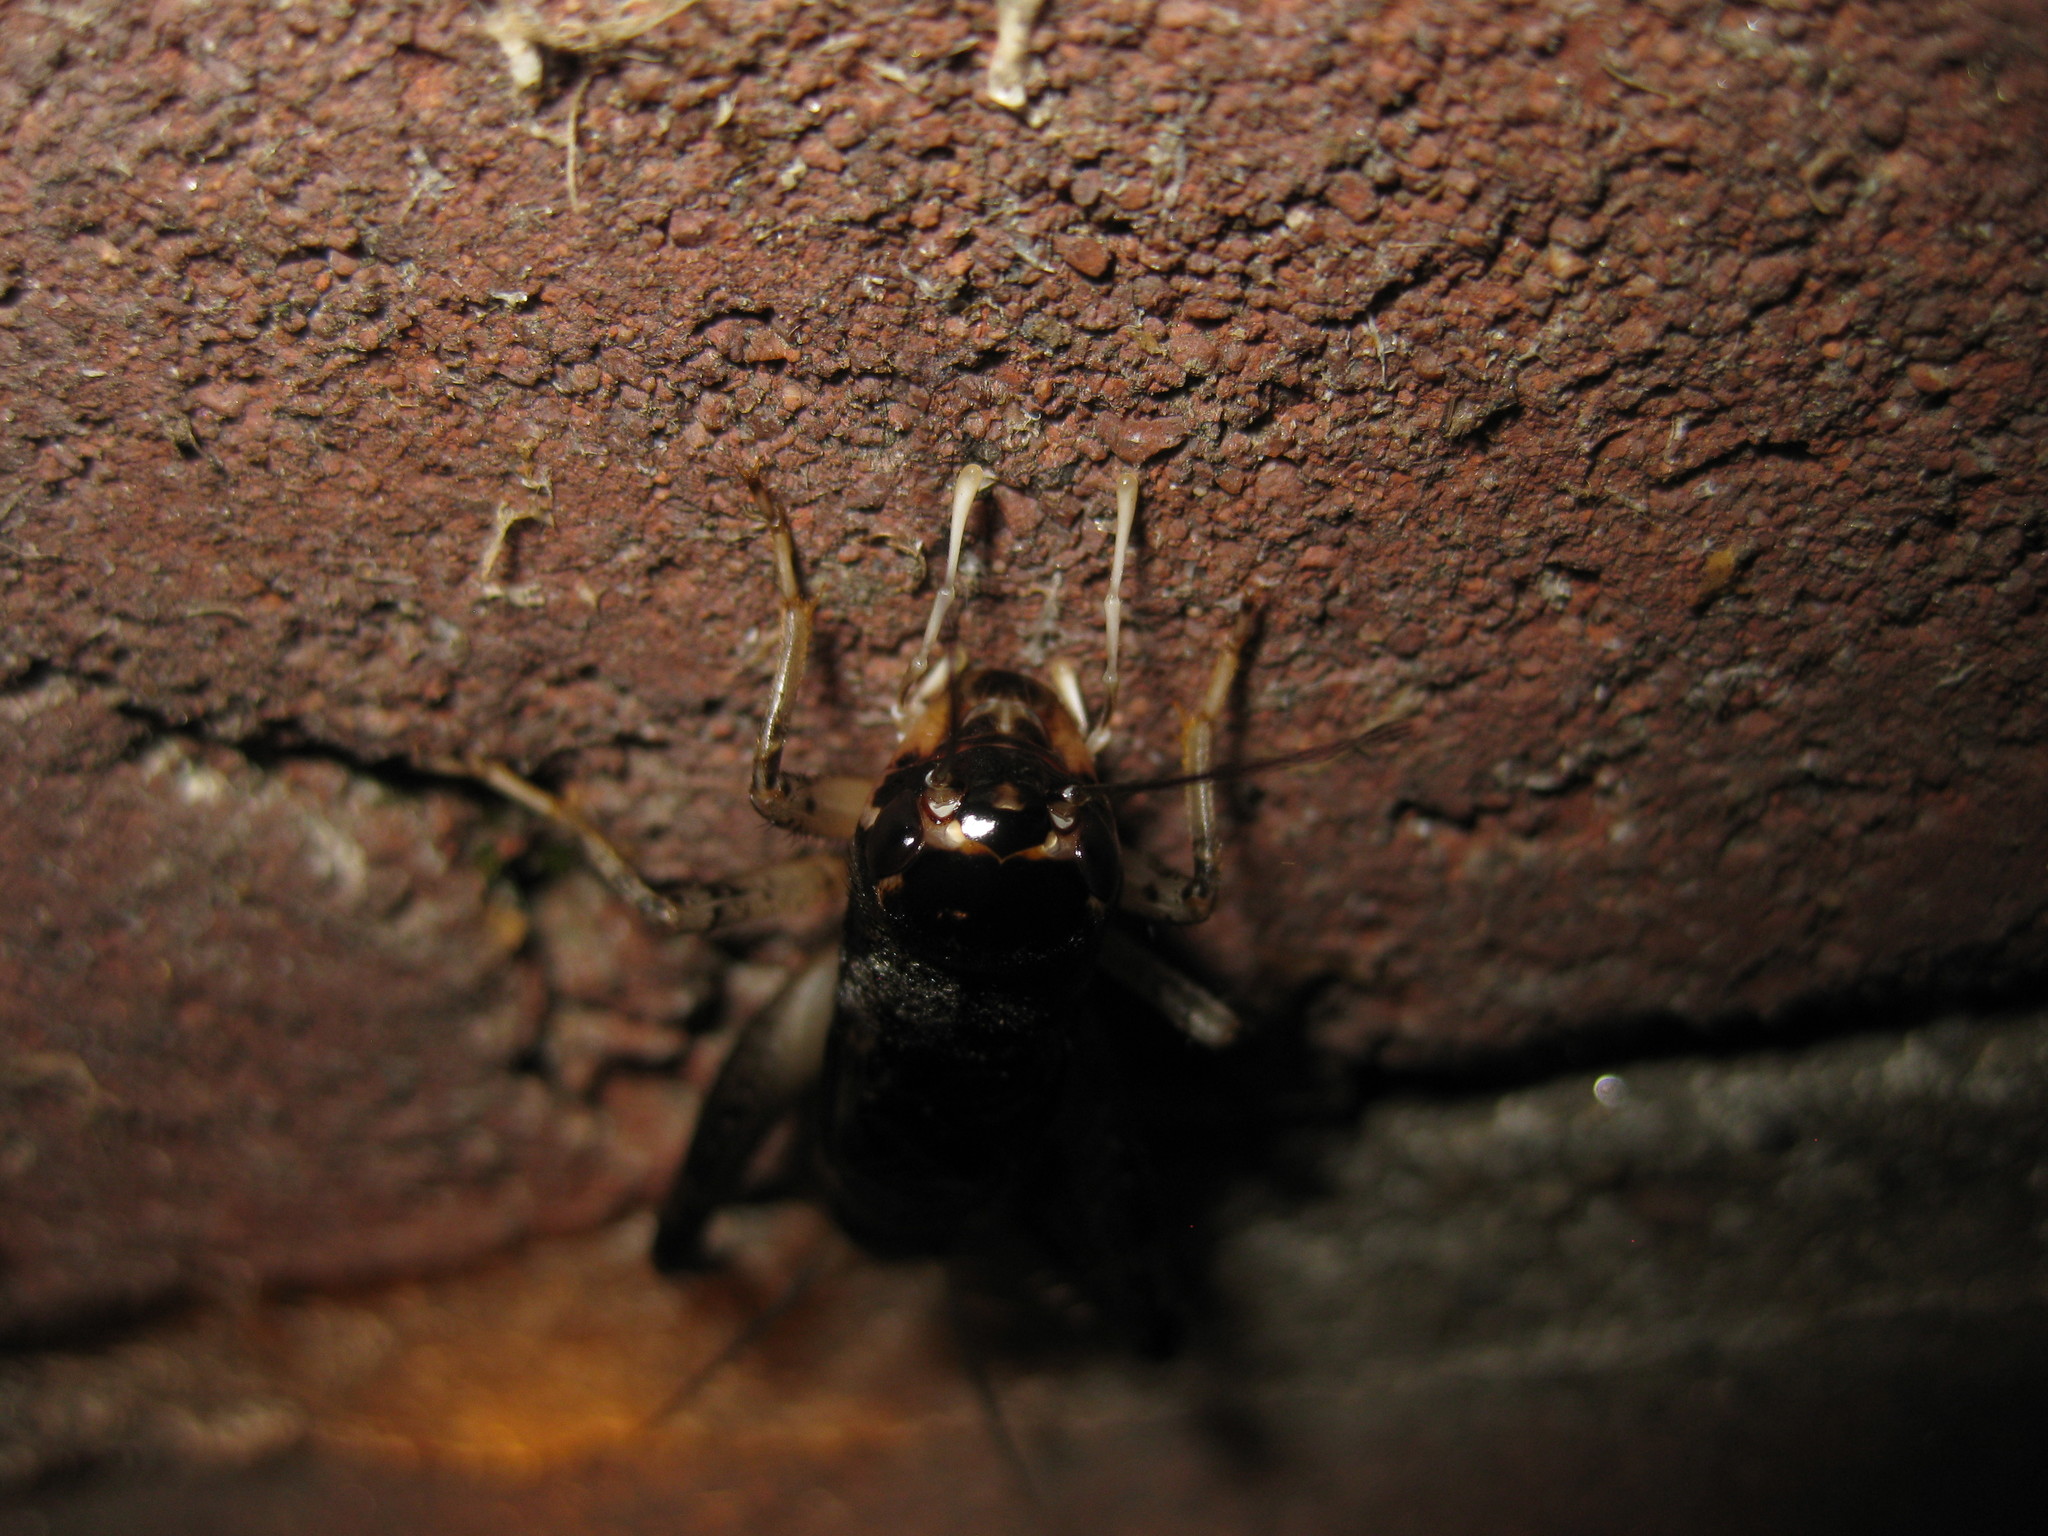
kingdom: Animalia
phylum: Arthropoda
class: Insecta
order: Orthoptera
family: Gryllidae
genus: Velarifictorus
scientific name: Velarifictorus micado
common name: Japanese burrowing cricket
